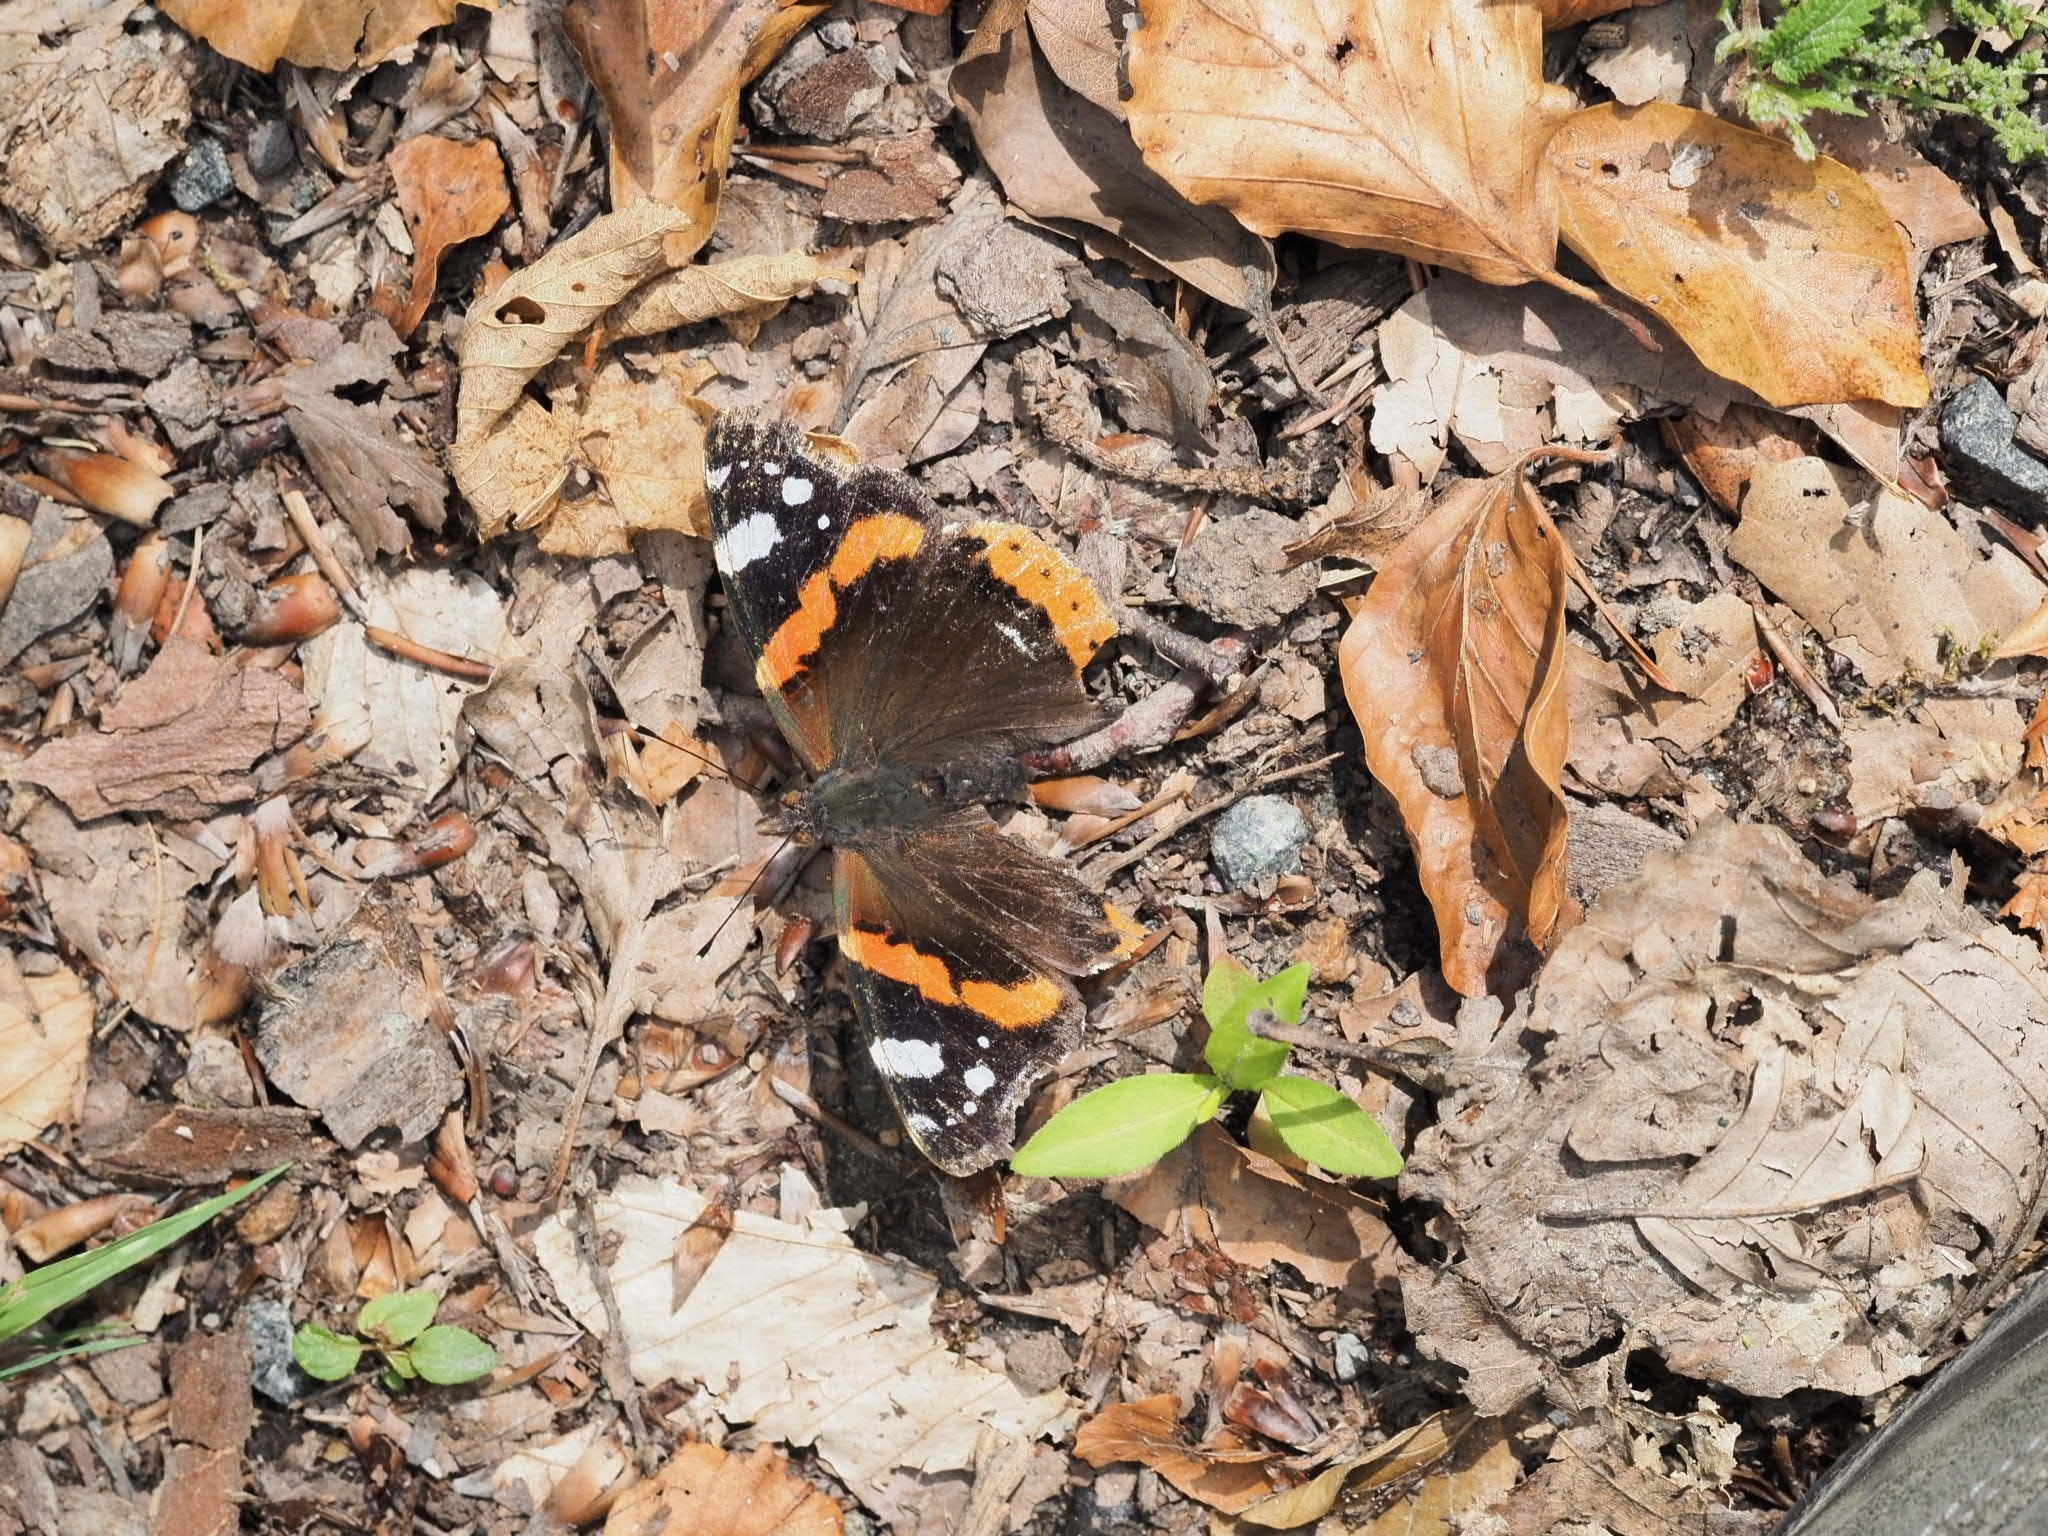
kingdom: Animalia
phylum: Arthropoda
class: Insecta
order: Lepidoptera
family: Nymphalidae
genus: Vanessa
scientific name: Vanessa atalanta
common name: Red admiral
